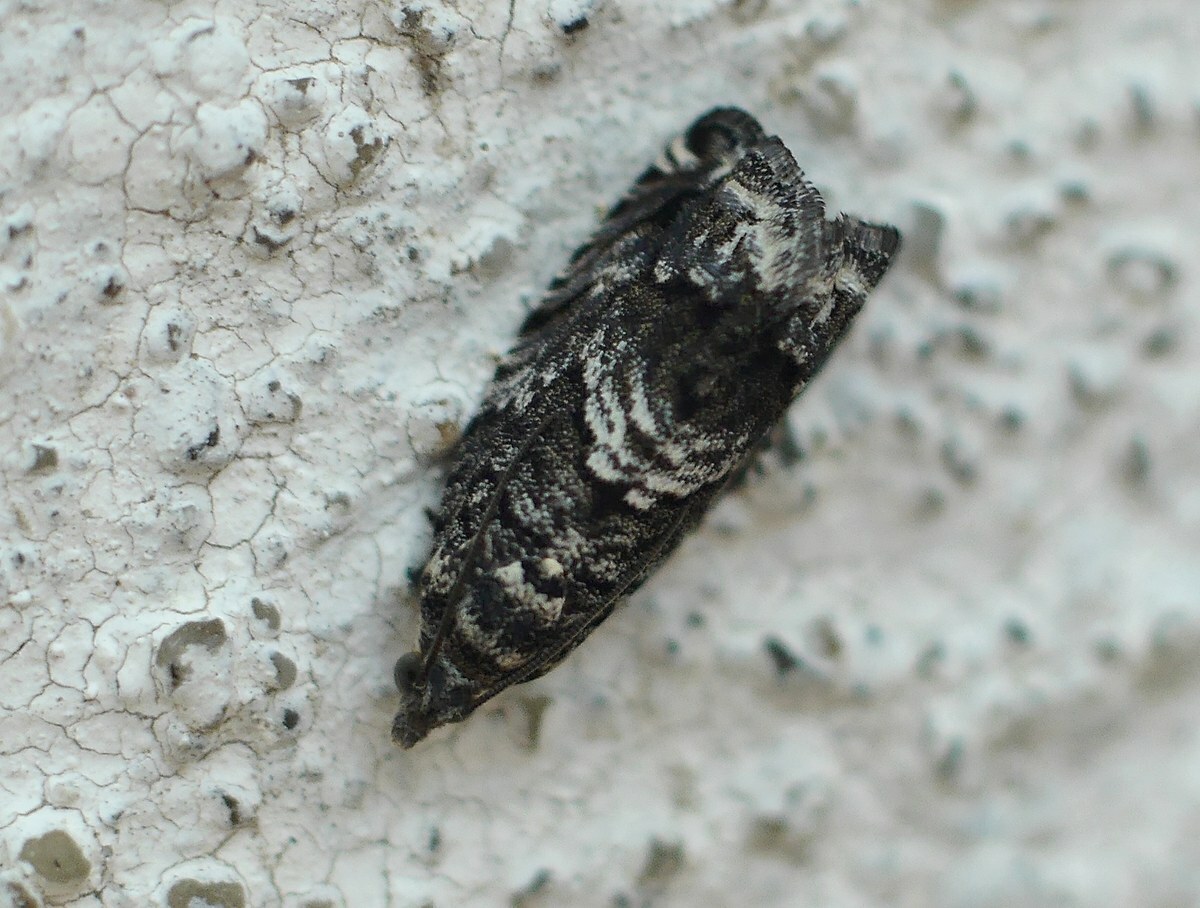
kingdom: Animalia
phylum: Arthropoda
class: Insecta
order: Lepidoptera
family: Tortricidae
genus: Cydia
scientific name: Cydia fagiglandana
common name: Large beech piercer
